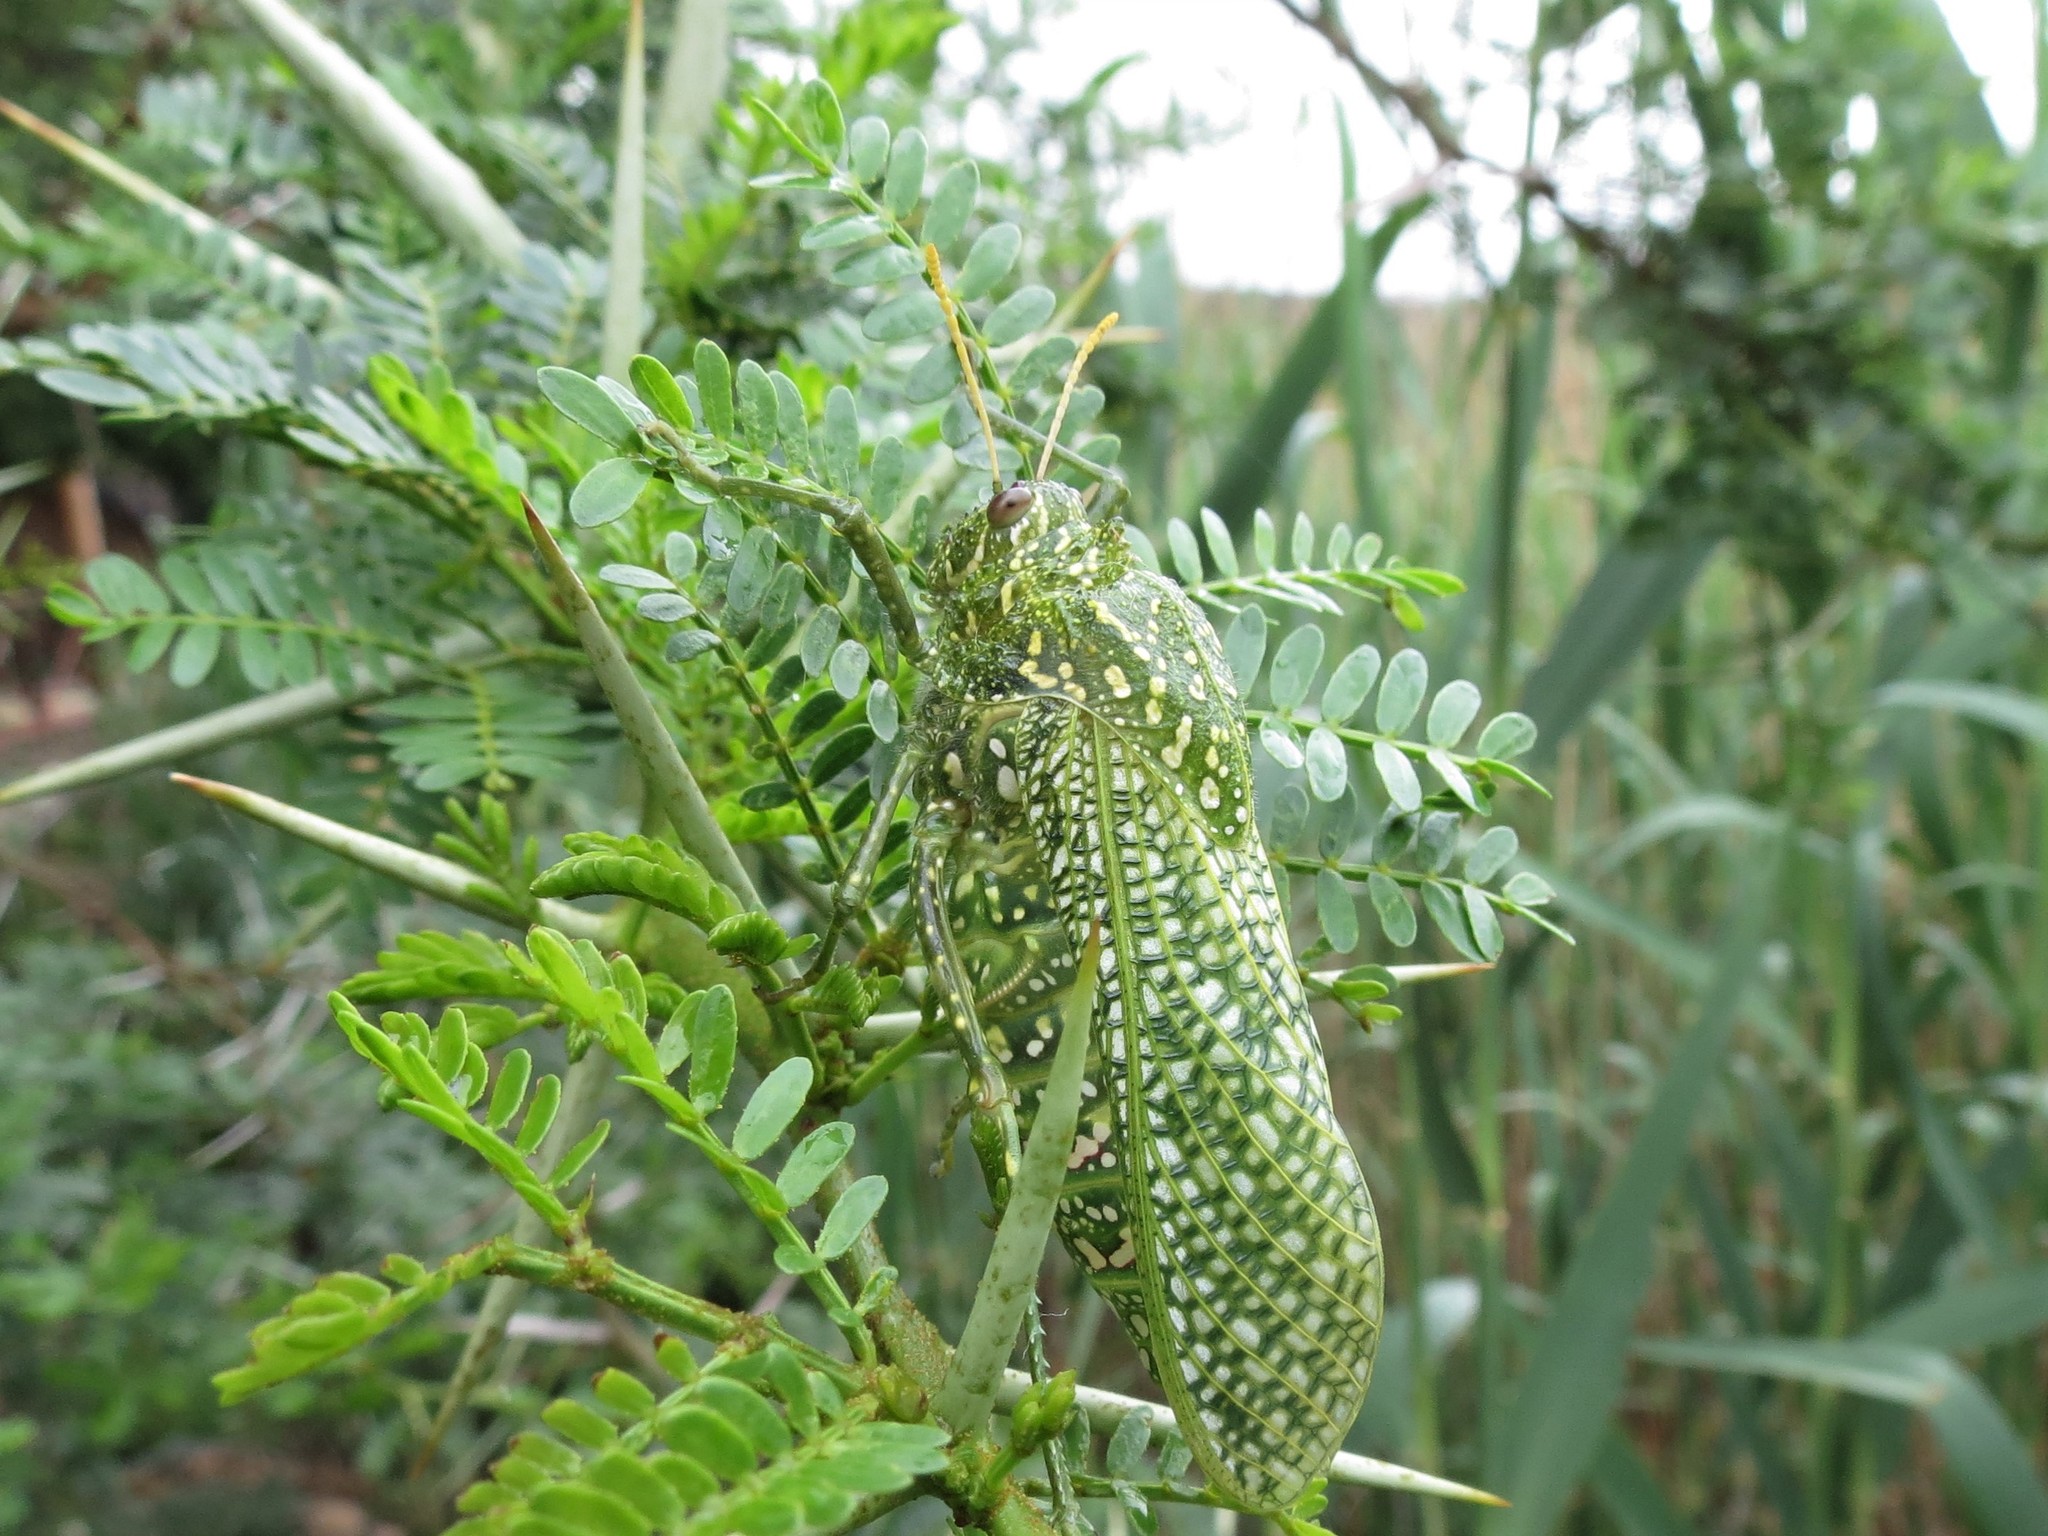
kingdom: Animalia
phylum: Arthropoda
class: Insecta
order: Orthoptera
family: Pneumoridae
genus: Physemacris
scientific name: Physemacris variolosa
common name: Silver spotted bladder grasshopper
